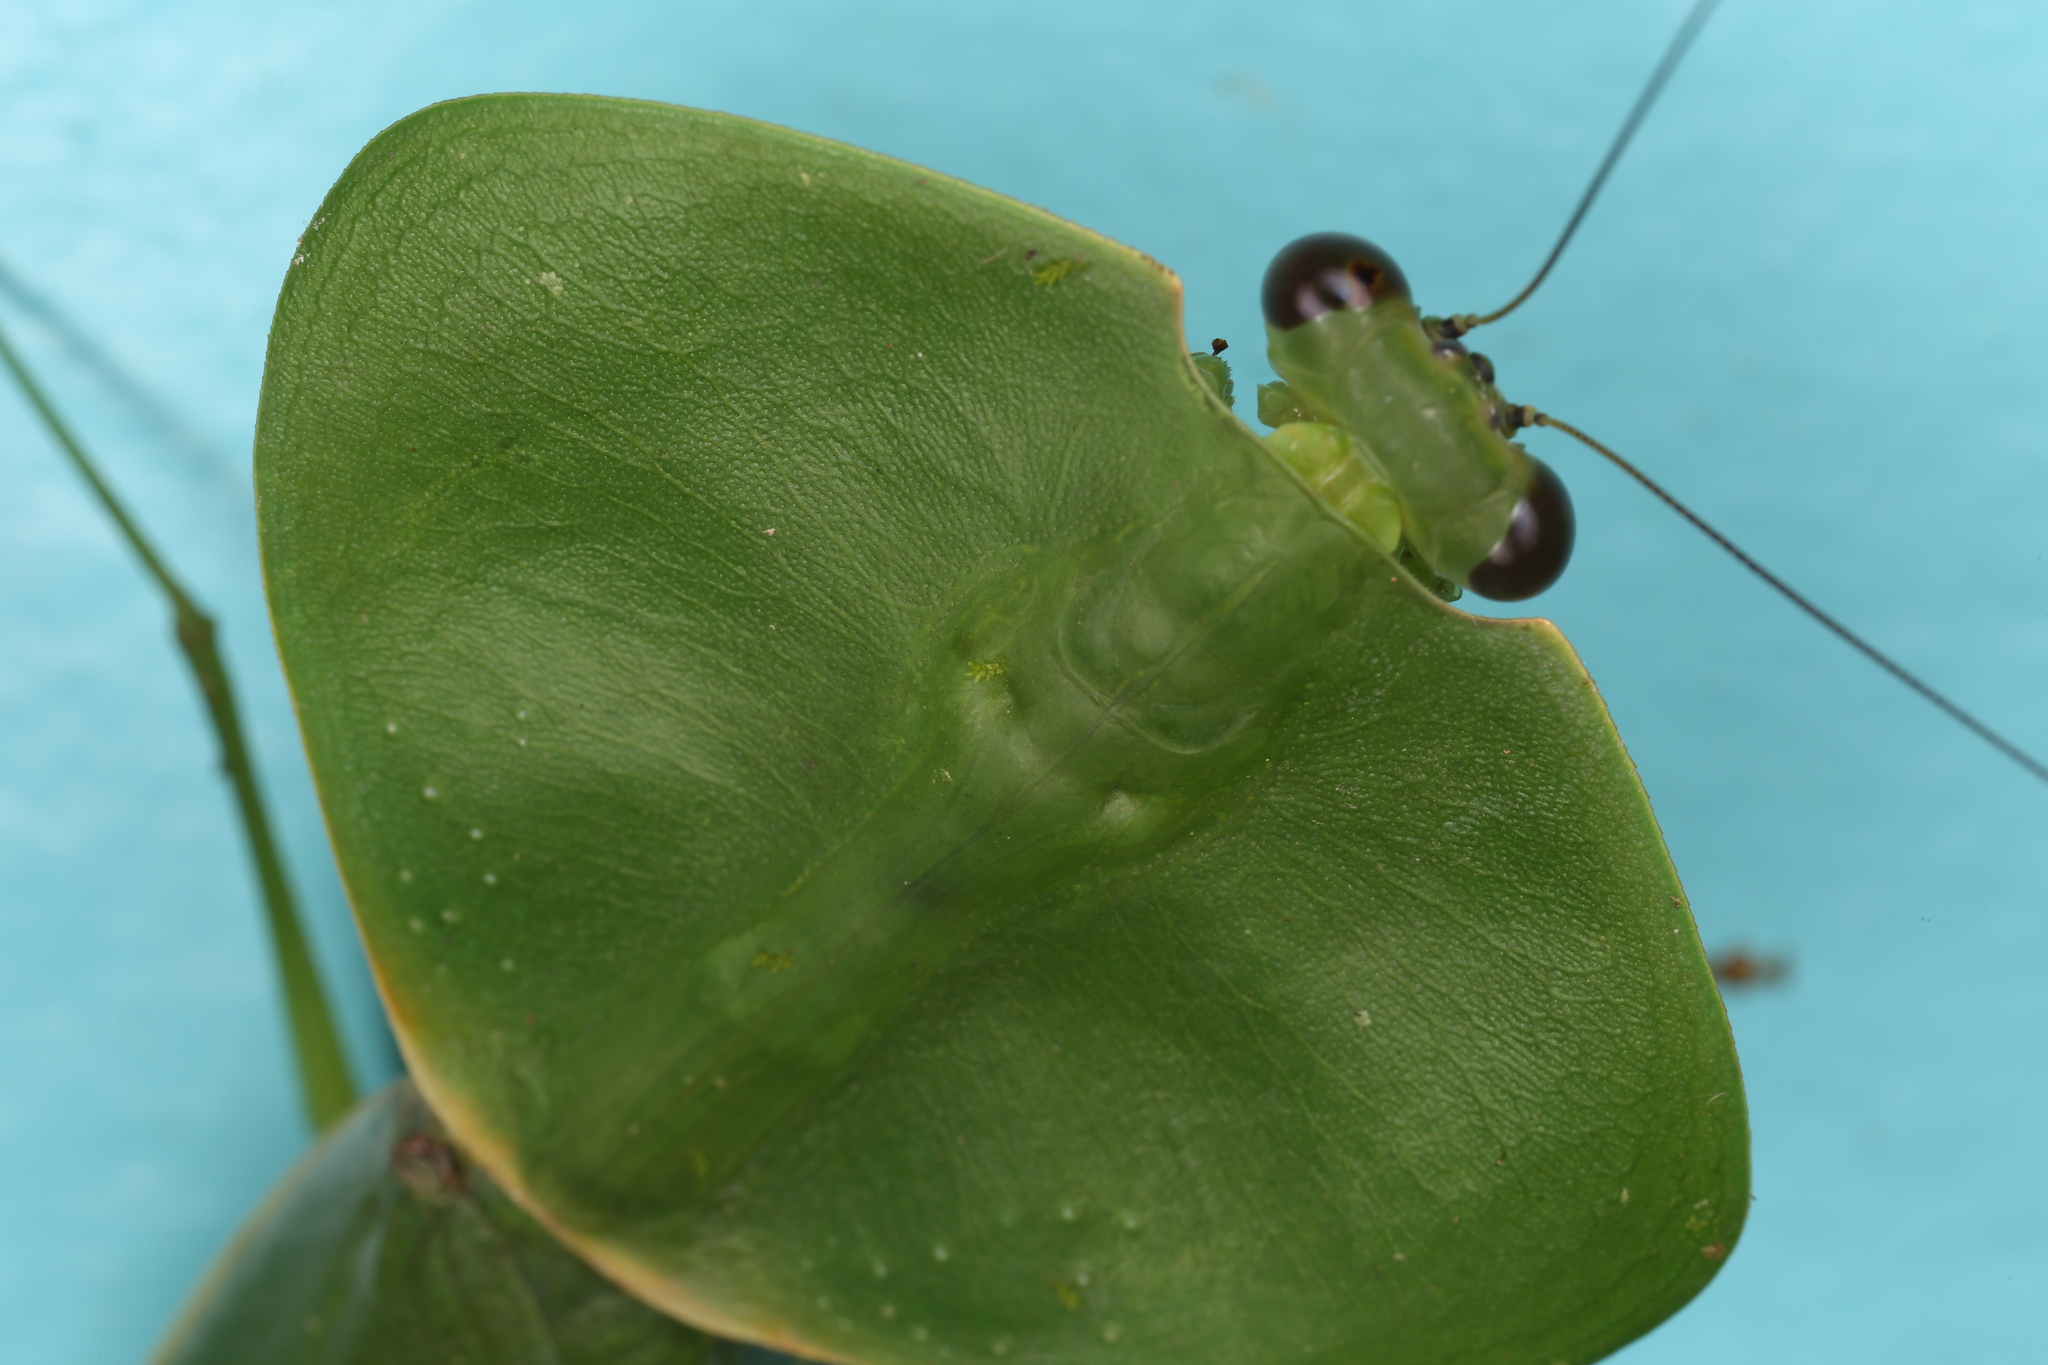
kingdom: Animalia
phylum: Arthropoda
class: Insecta
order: Mantodea
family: Mantidae
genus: Choeradodis
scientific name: Choeradodis rhombicollis
